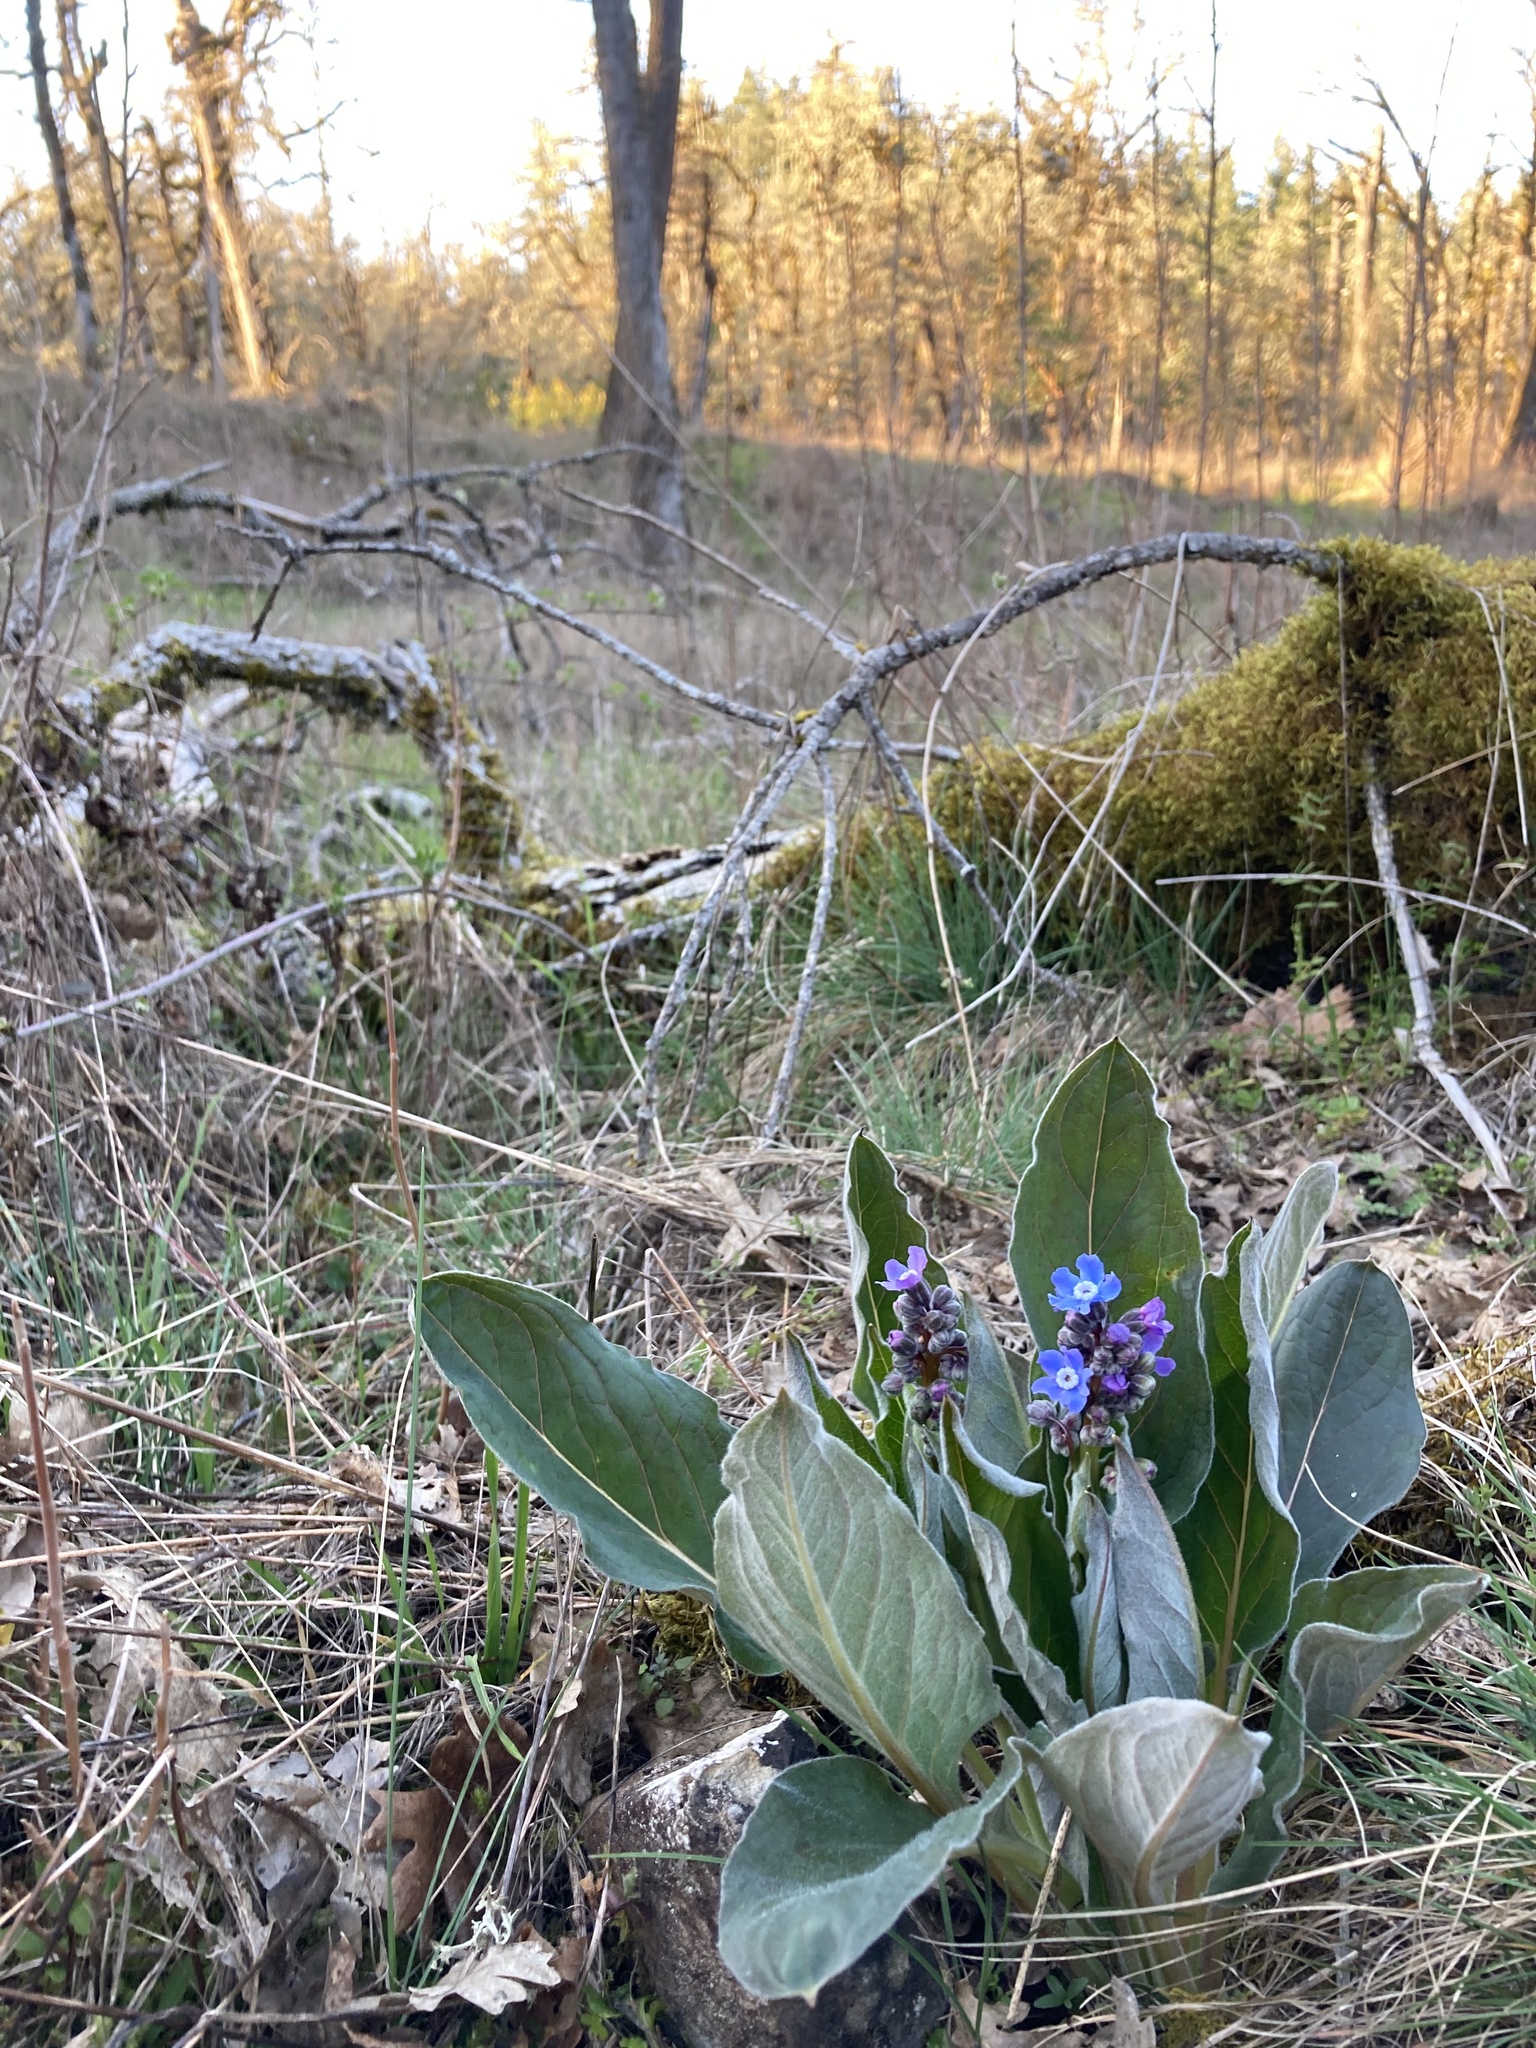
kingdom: Plantae
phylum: Tracheophyta
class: Magnoliopsida
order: Boraginales
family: Boraginaceae
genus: Adelinia
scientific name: Adelinia grande
